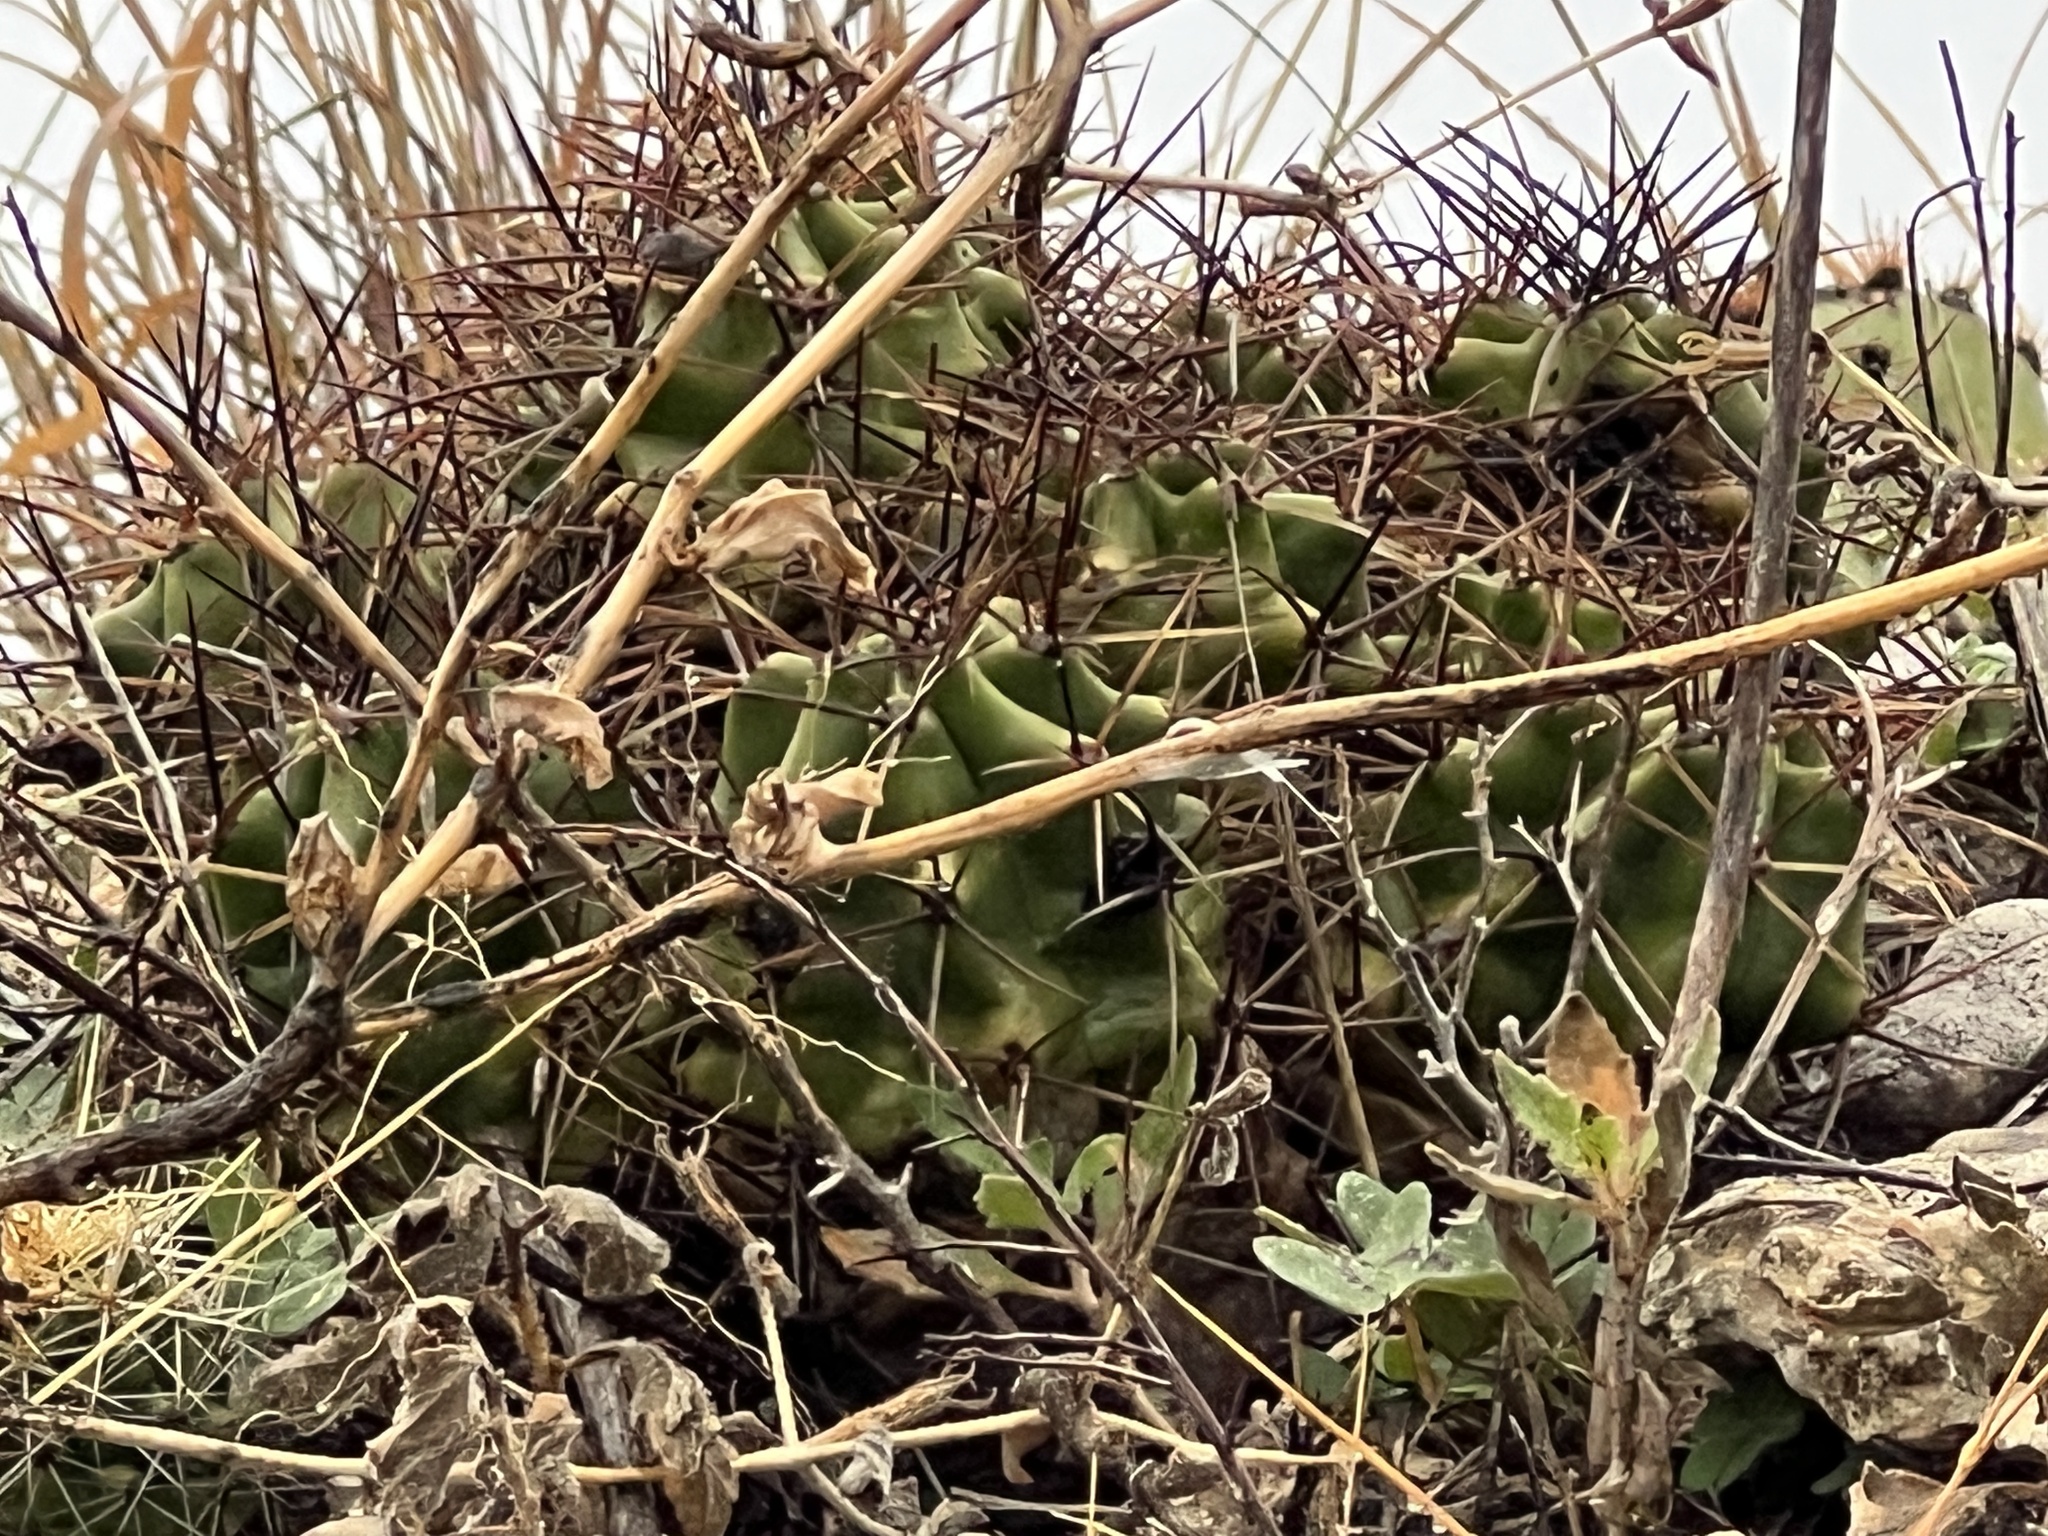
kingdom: Plantae
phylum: Tracheophyta
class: Magnoliopsida
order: Caryophyllales
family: Cactaceae
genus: Echinocereus
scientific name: Echinocereus coccineus
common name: Scarlet hedgehog cactus
